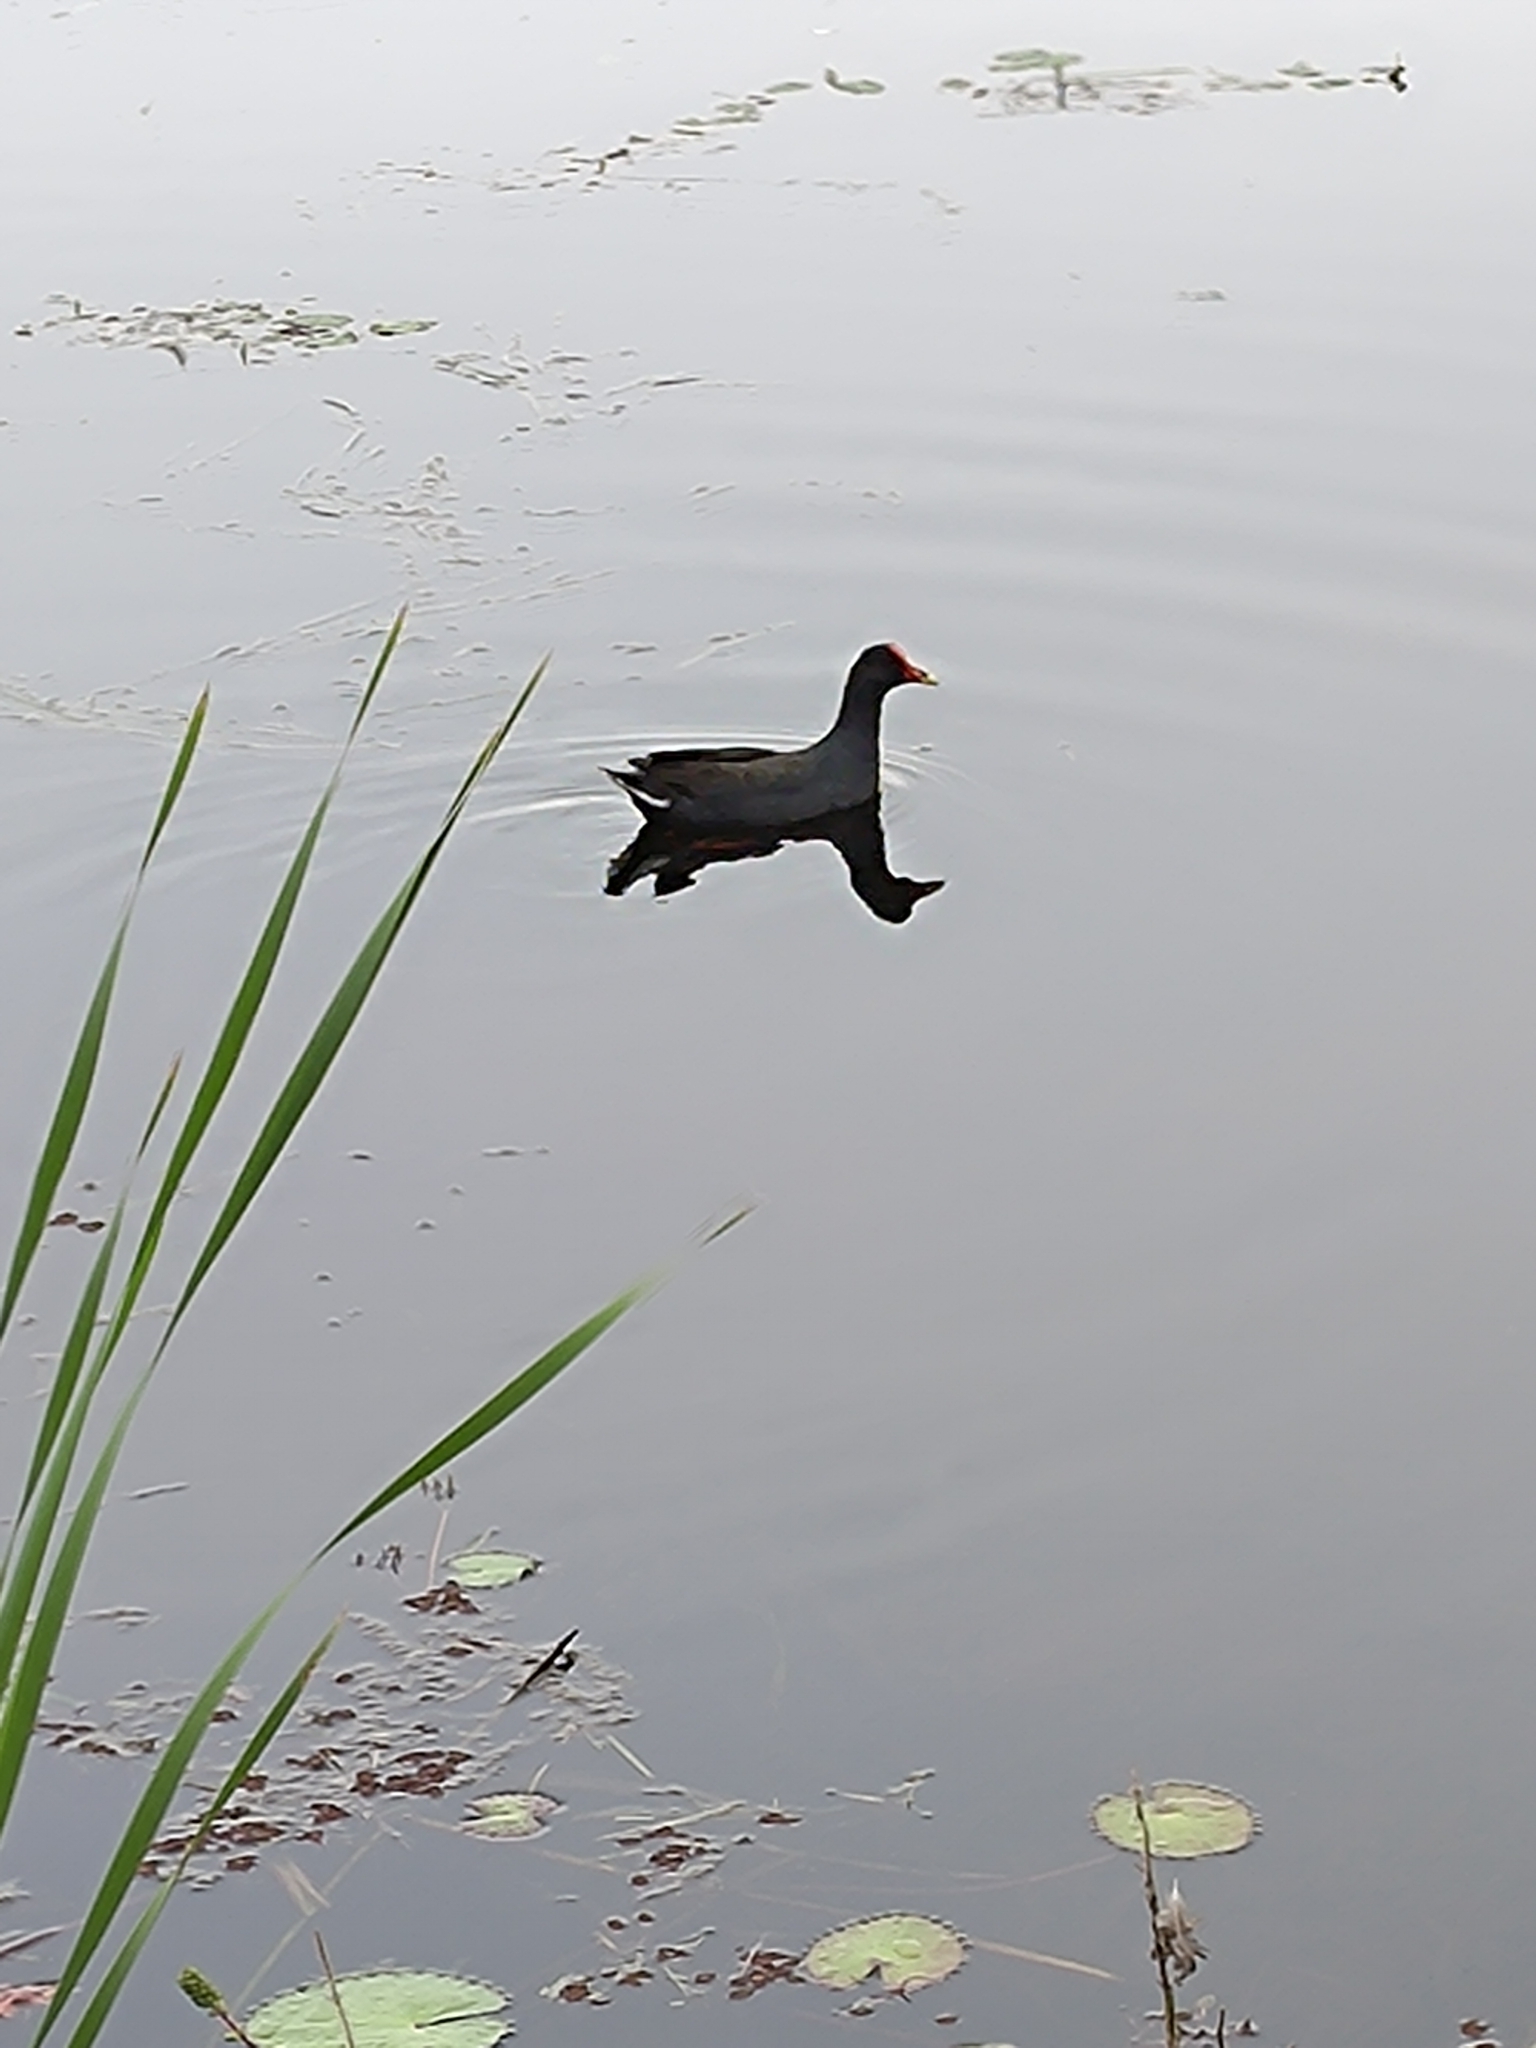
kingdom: Animalia
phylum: Chordata
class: Aves
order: Gruiformes
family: Rallidae
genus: Gallinula
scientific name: Gallinula tenebrosa
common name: Dusky moorhen
